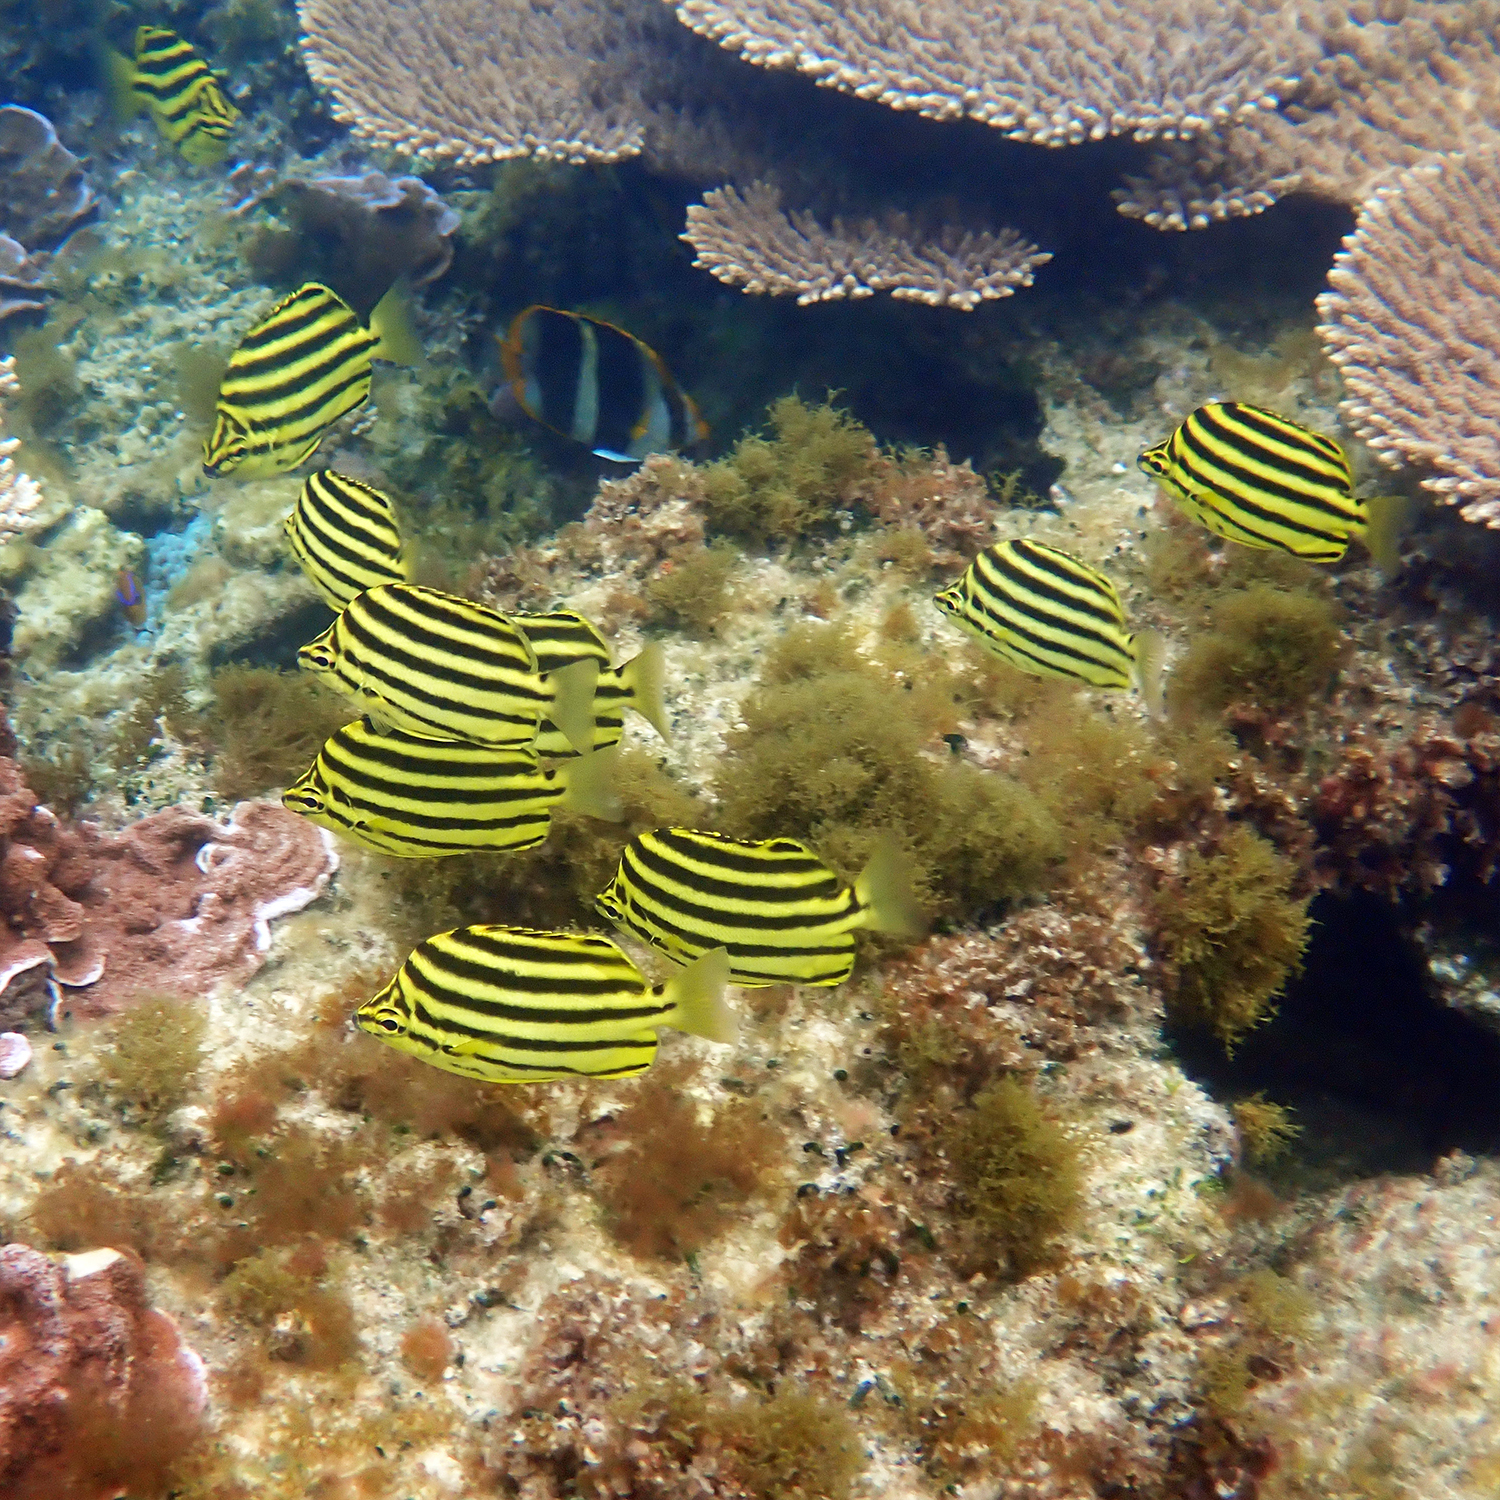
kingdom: Animalia
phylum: Chordata
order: Perciformes
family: Kyphosidae
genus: Microcanthus
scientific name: Microcanthus joyceae
